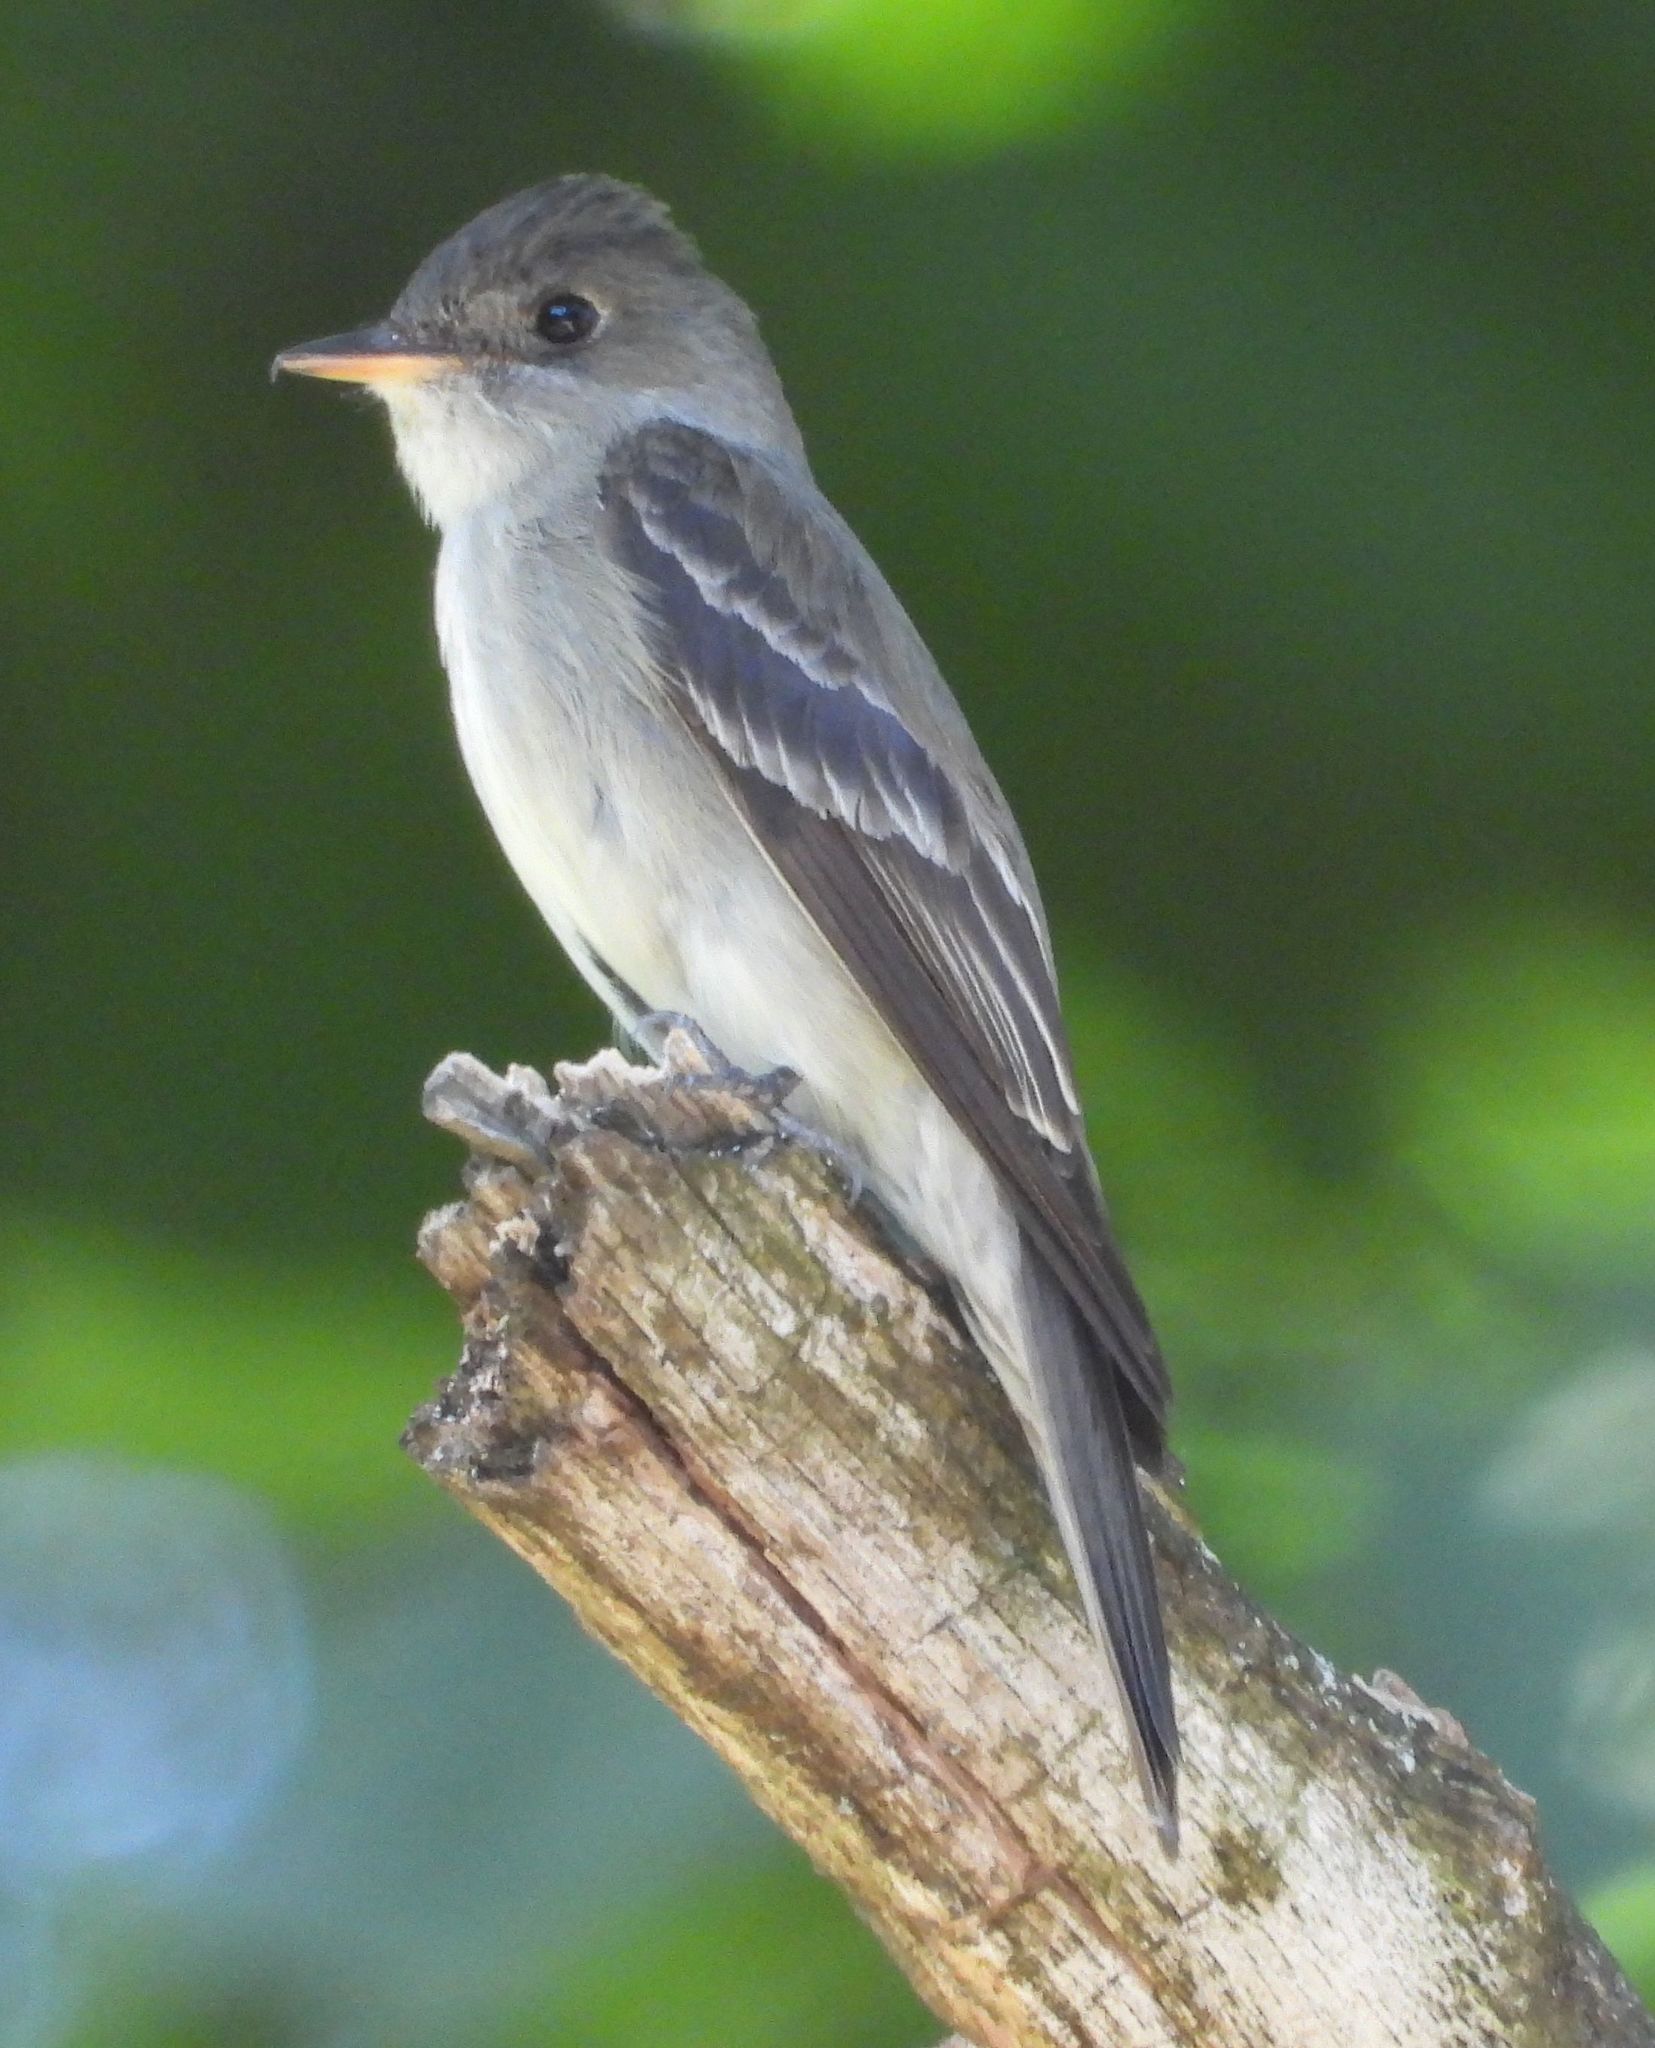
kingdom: Animalia
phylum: Chordata
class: Aves
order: Passeriformes
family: Tyrannidae
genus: Contopus
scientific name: Contopus virens
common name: Eastern wood-pewee
